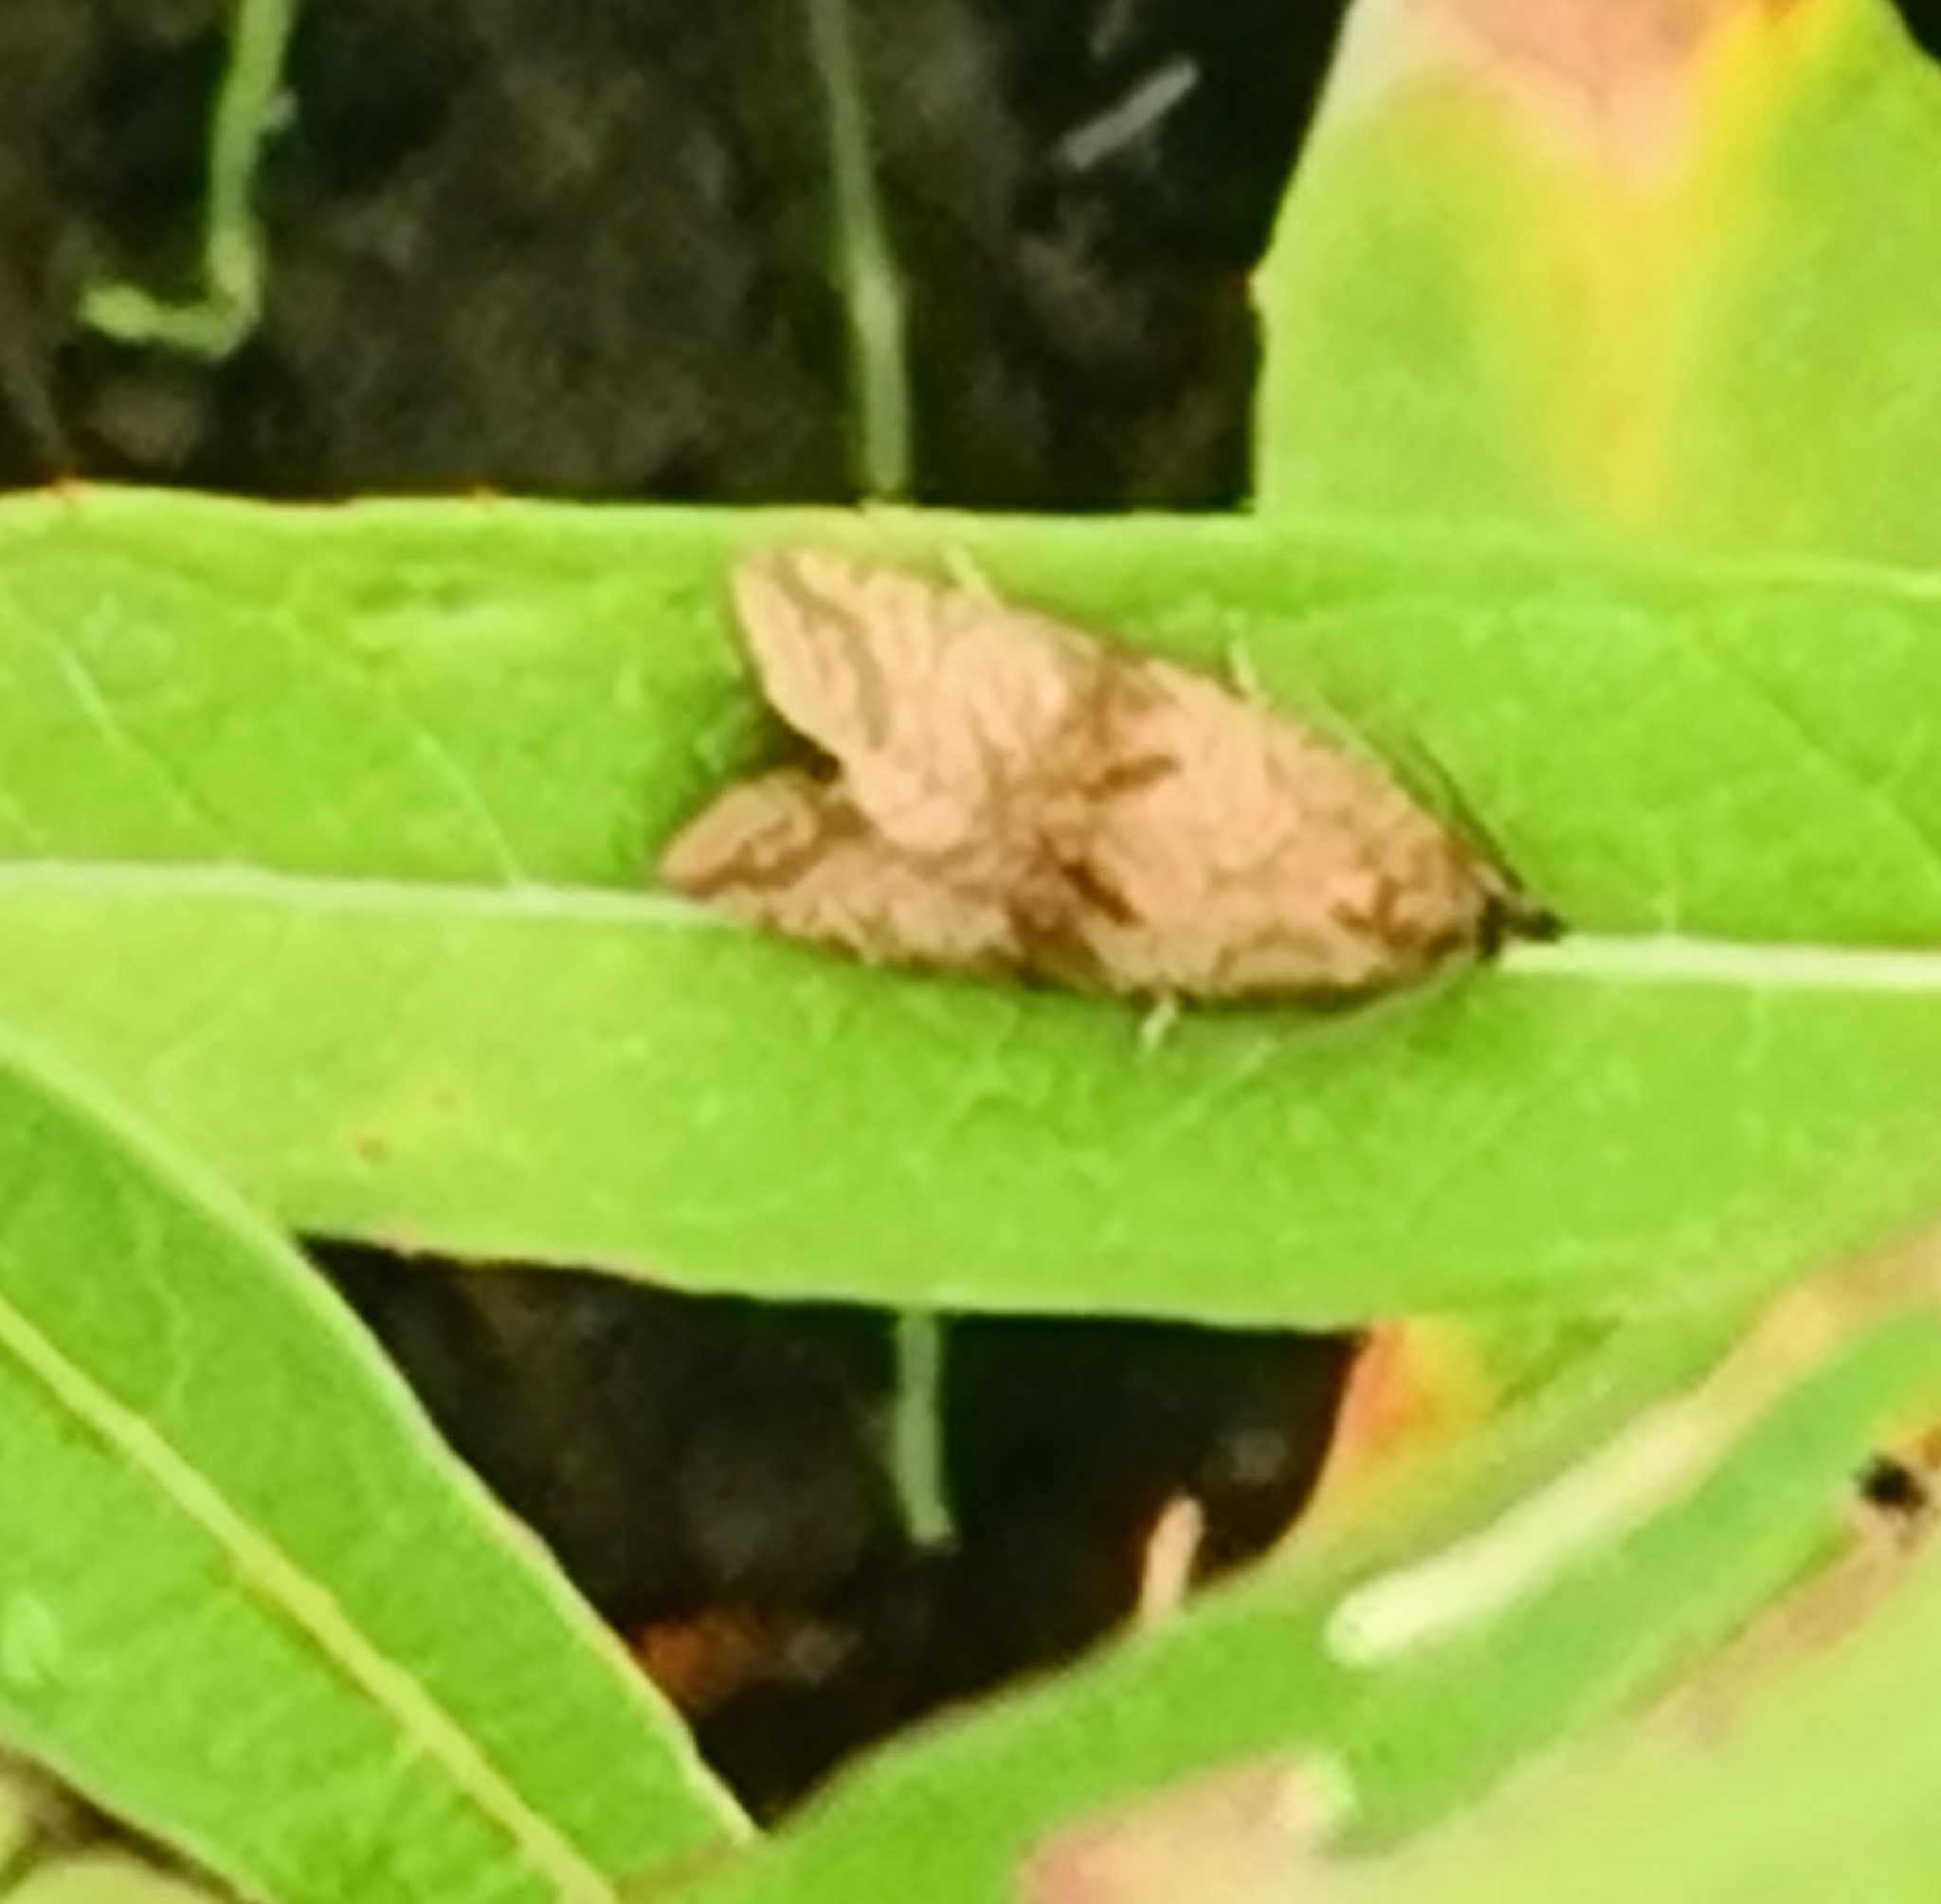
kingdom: Animalia
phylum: Arthropoda
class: Insecta
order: Lepidoptera
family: Tortricidae
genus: Celypha
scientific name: Celypha striana
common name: Barred marble
